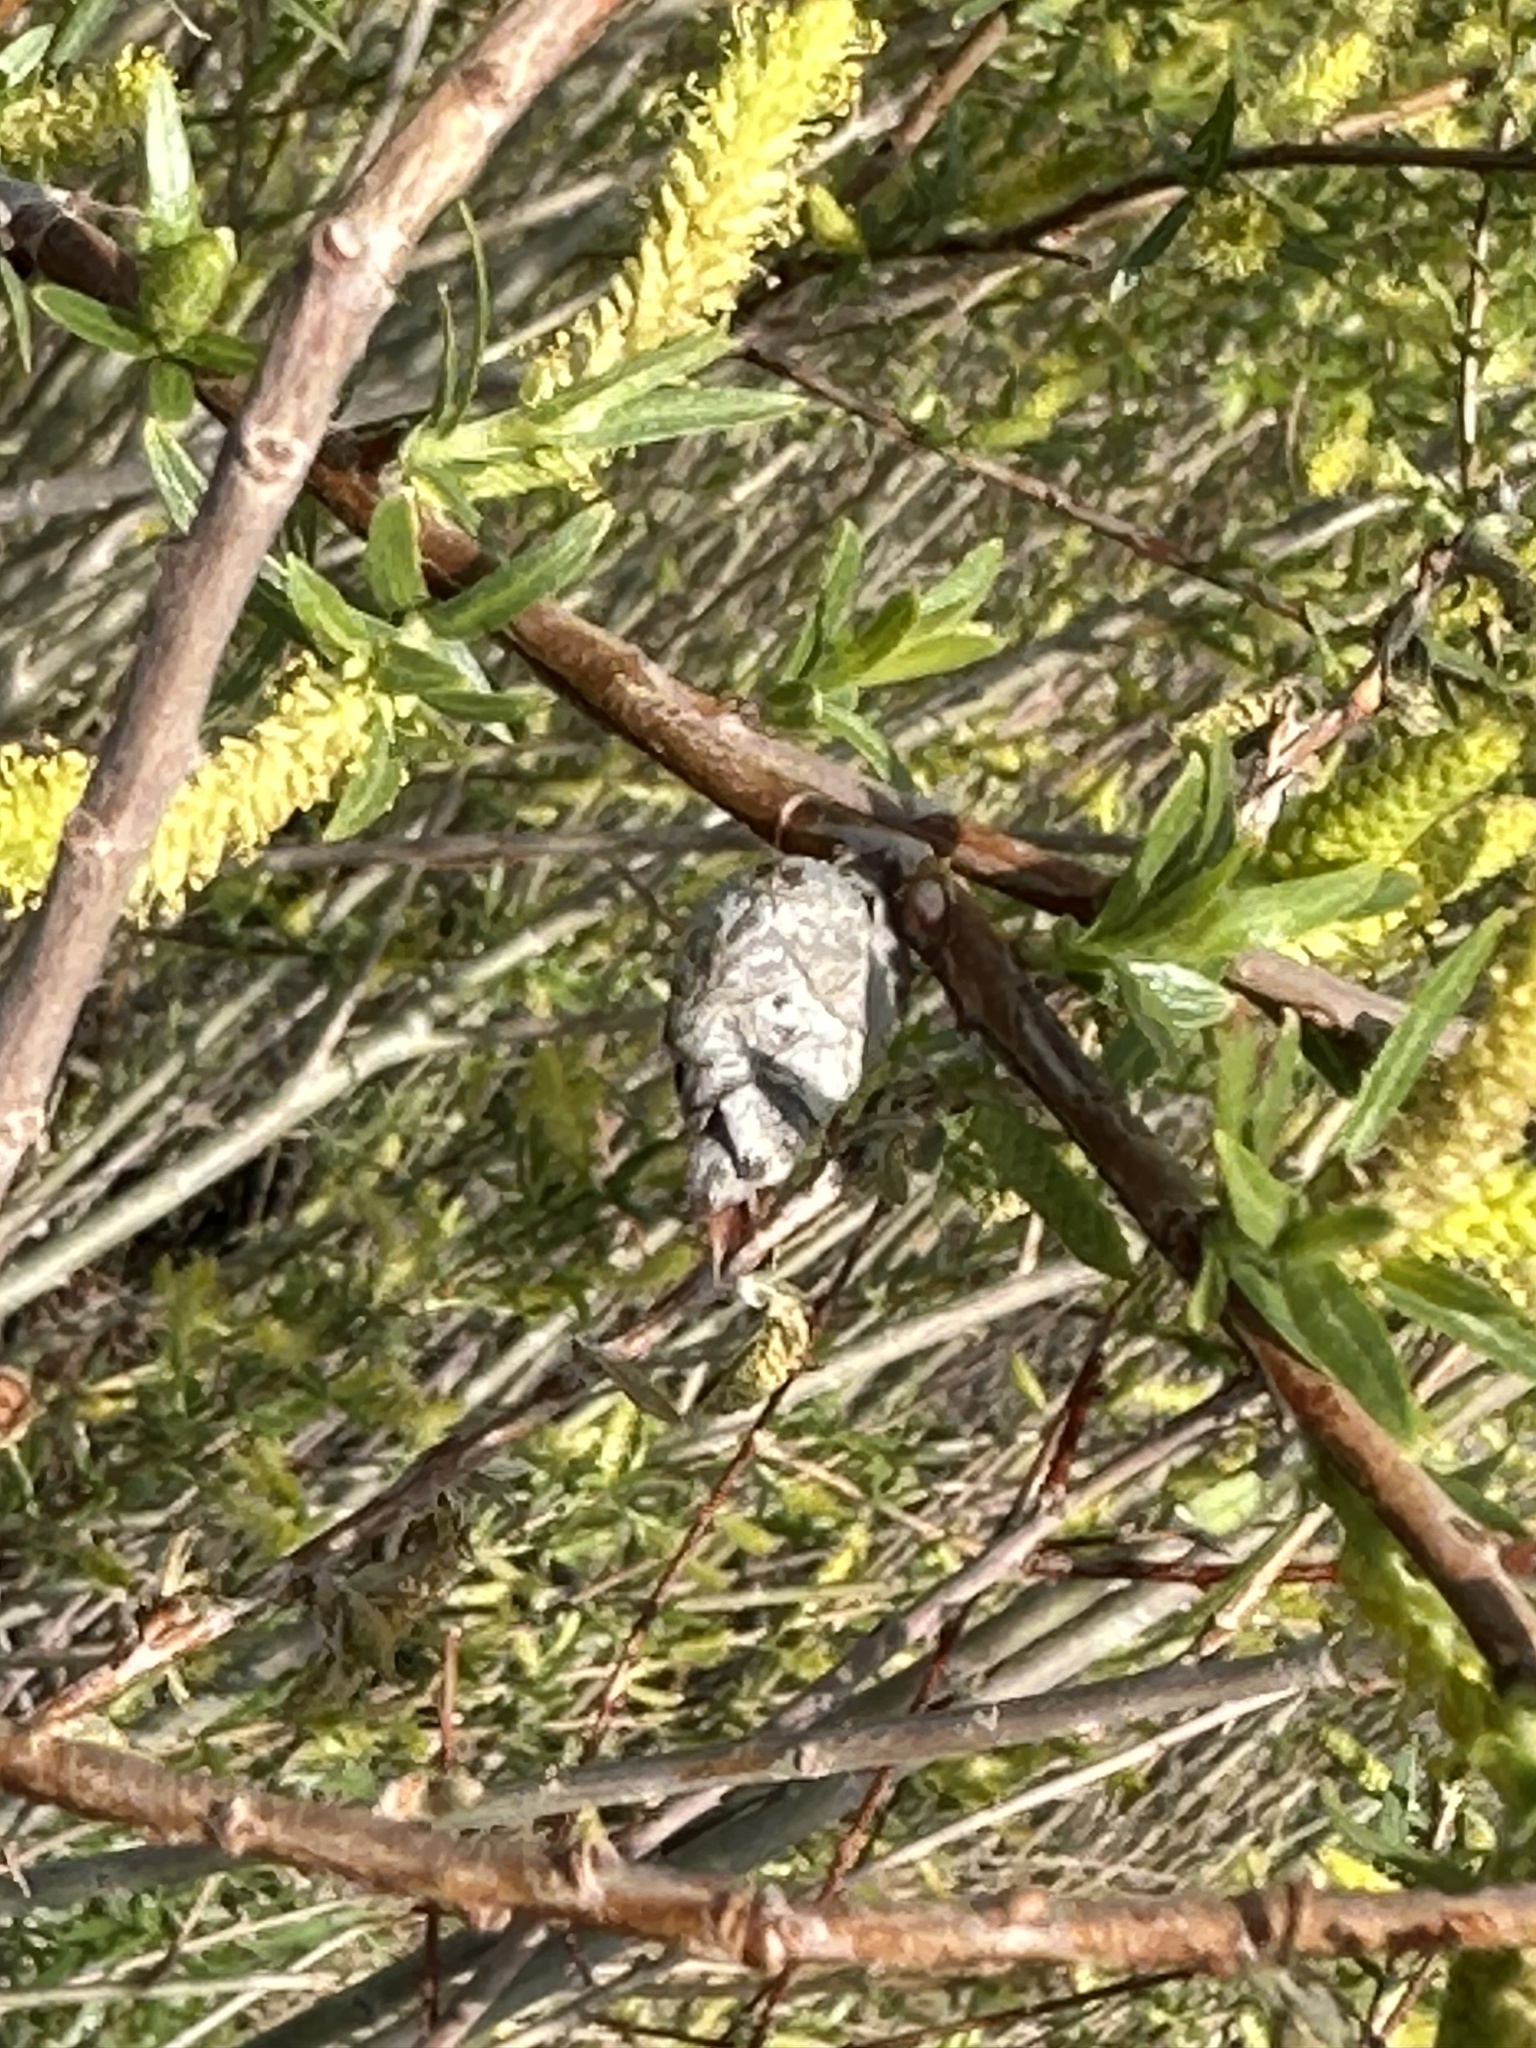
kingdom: Animalia
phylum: Arthropoda
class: Insecta
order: Diptera
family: Cecidomyiidae
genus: Rabdophaga
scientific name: Rabdophaga strobiloides
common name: Willow pinecone gall midge
